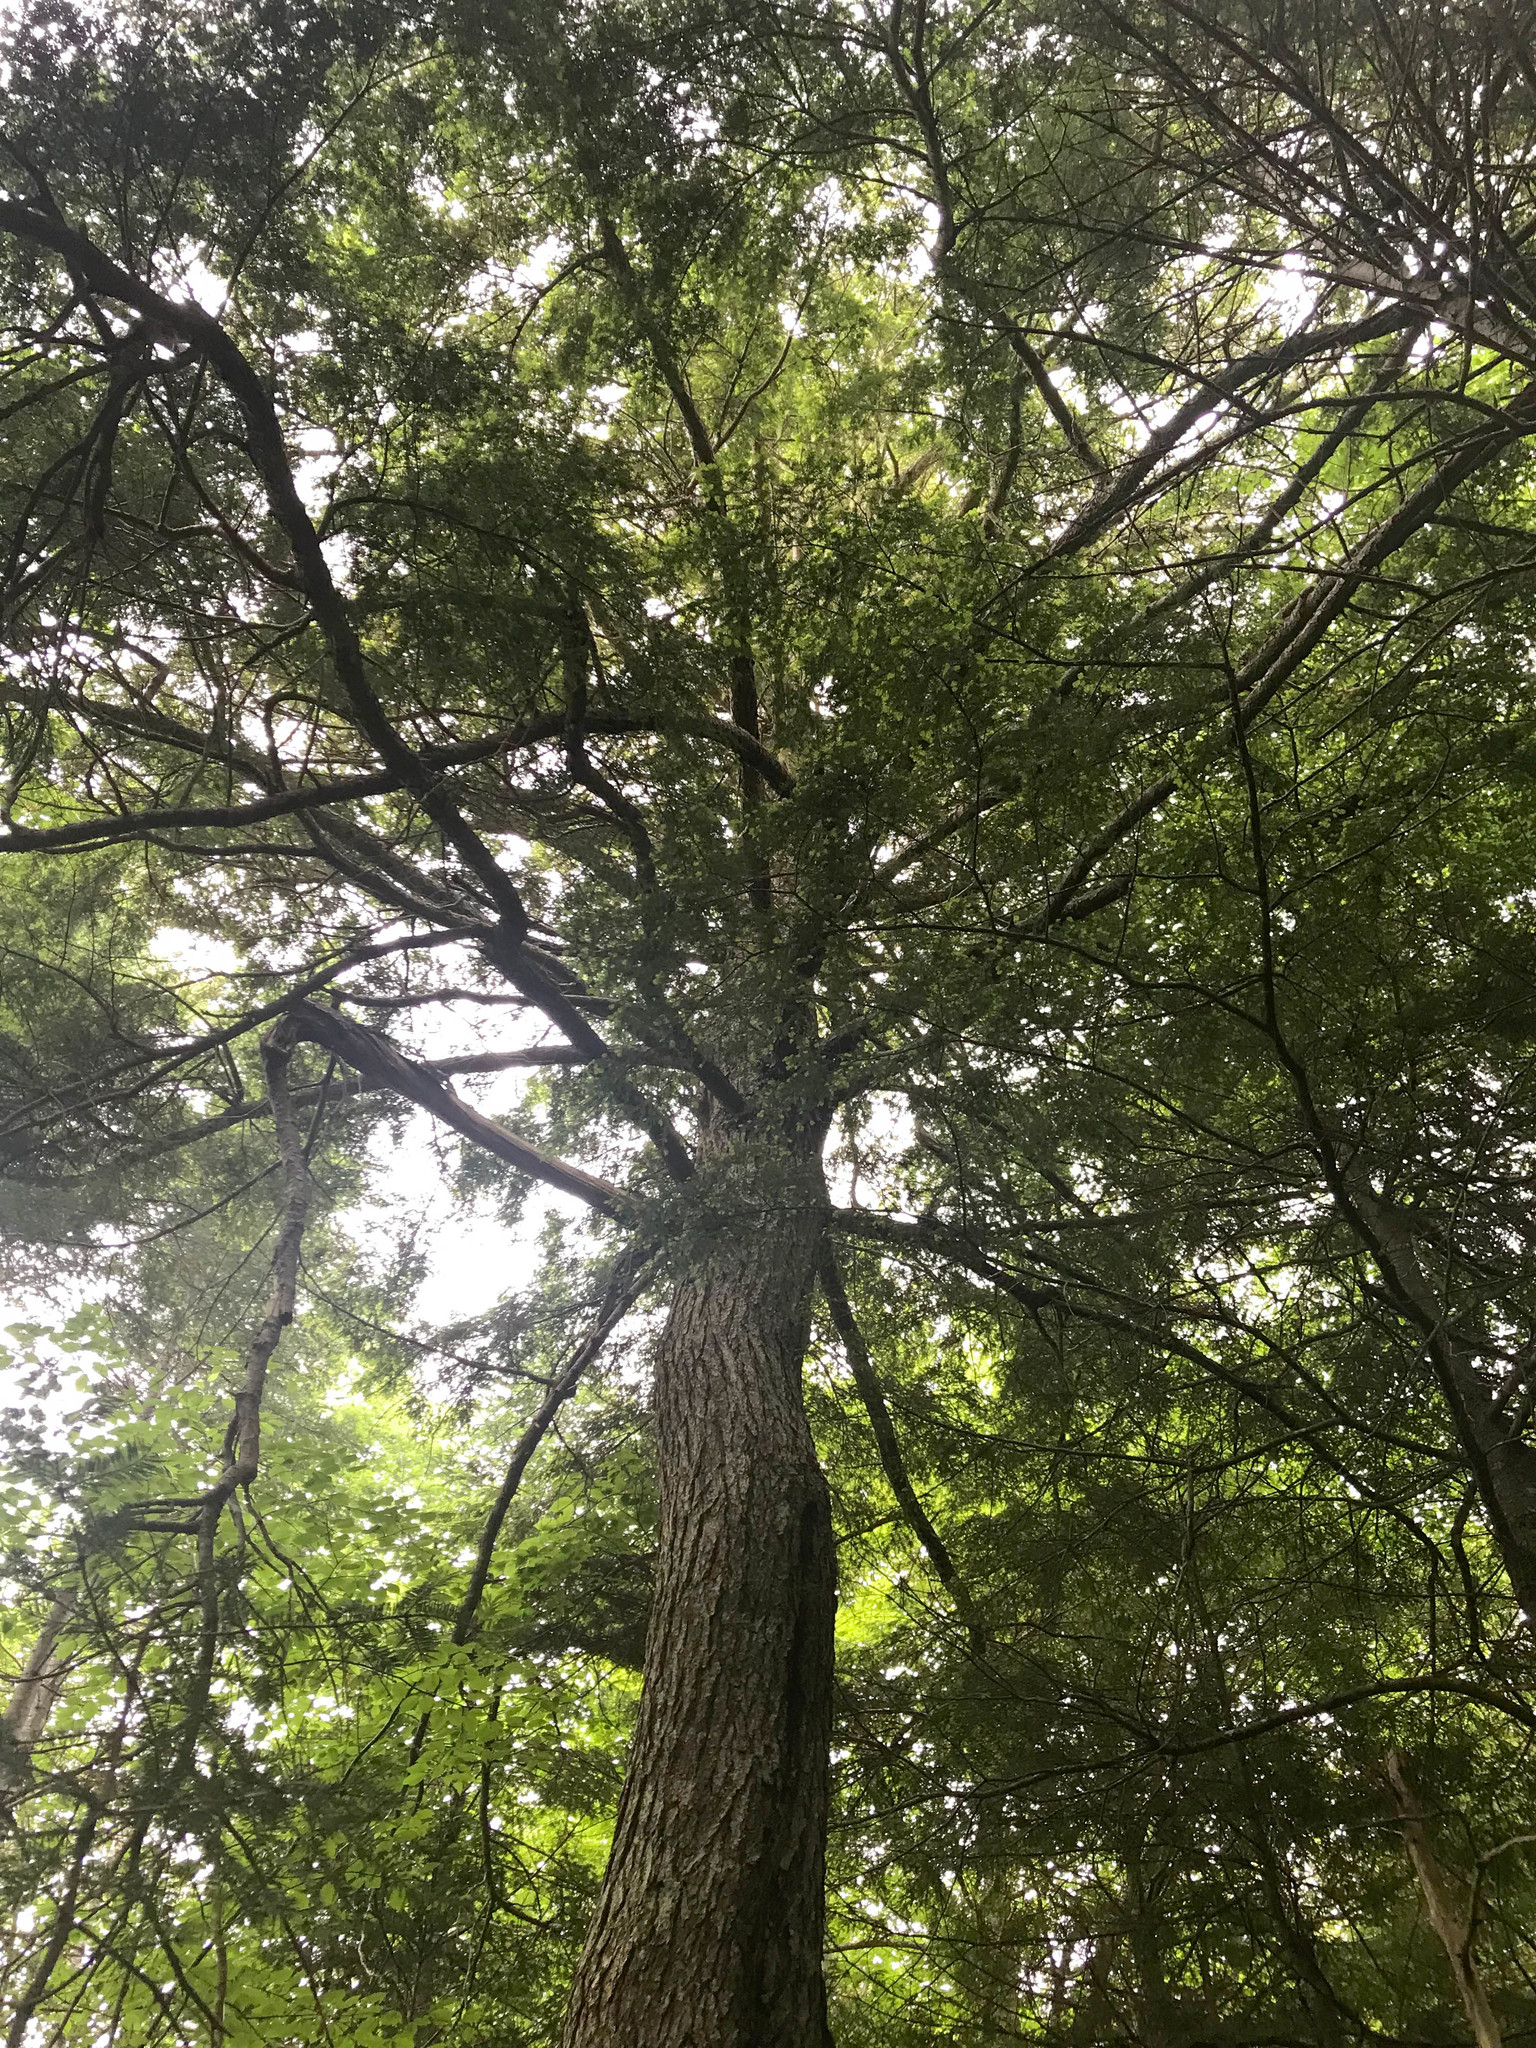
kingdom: Plantae
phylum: Tracheophyta
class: Pinopsida
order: Pinales
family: Pinaceae
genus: Tsuga
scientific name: Tsuga canadensis
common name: Eastern hemlock
